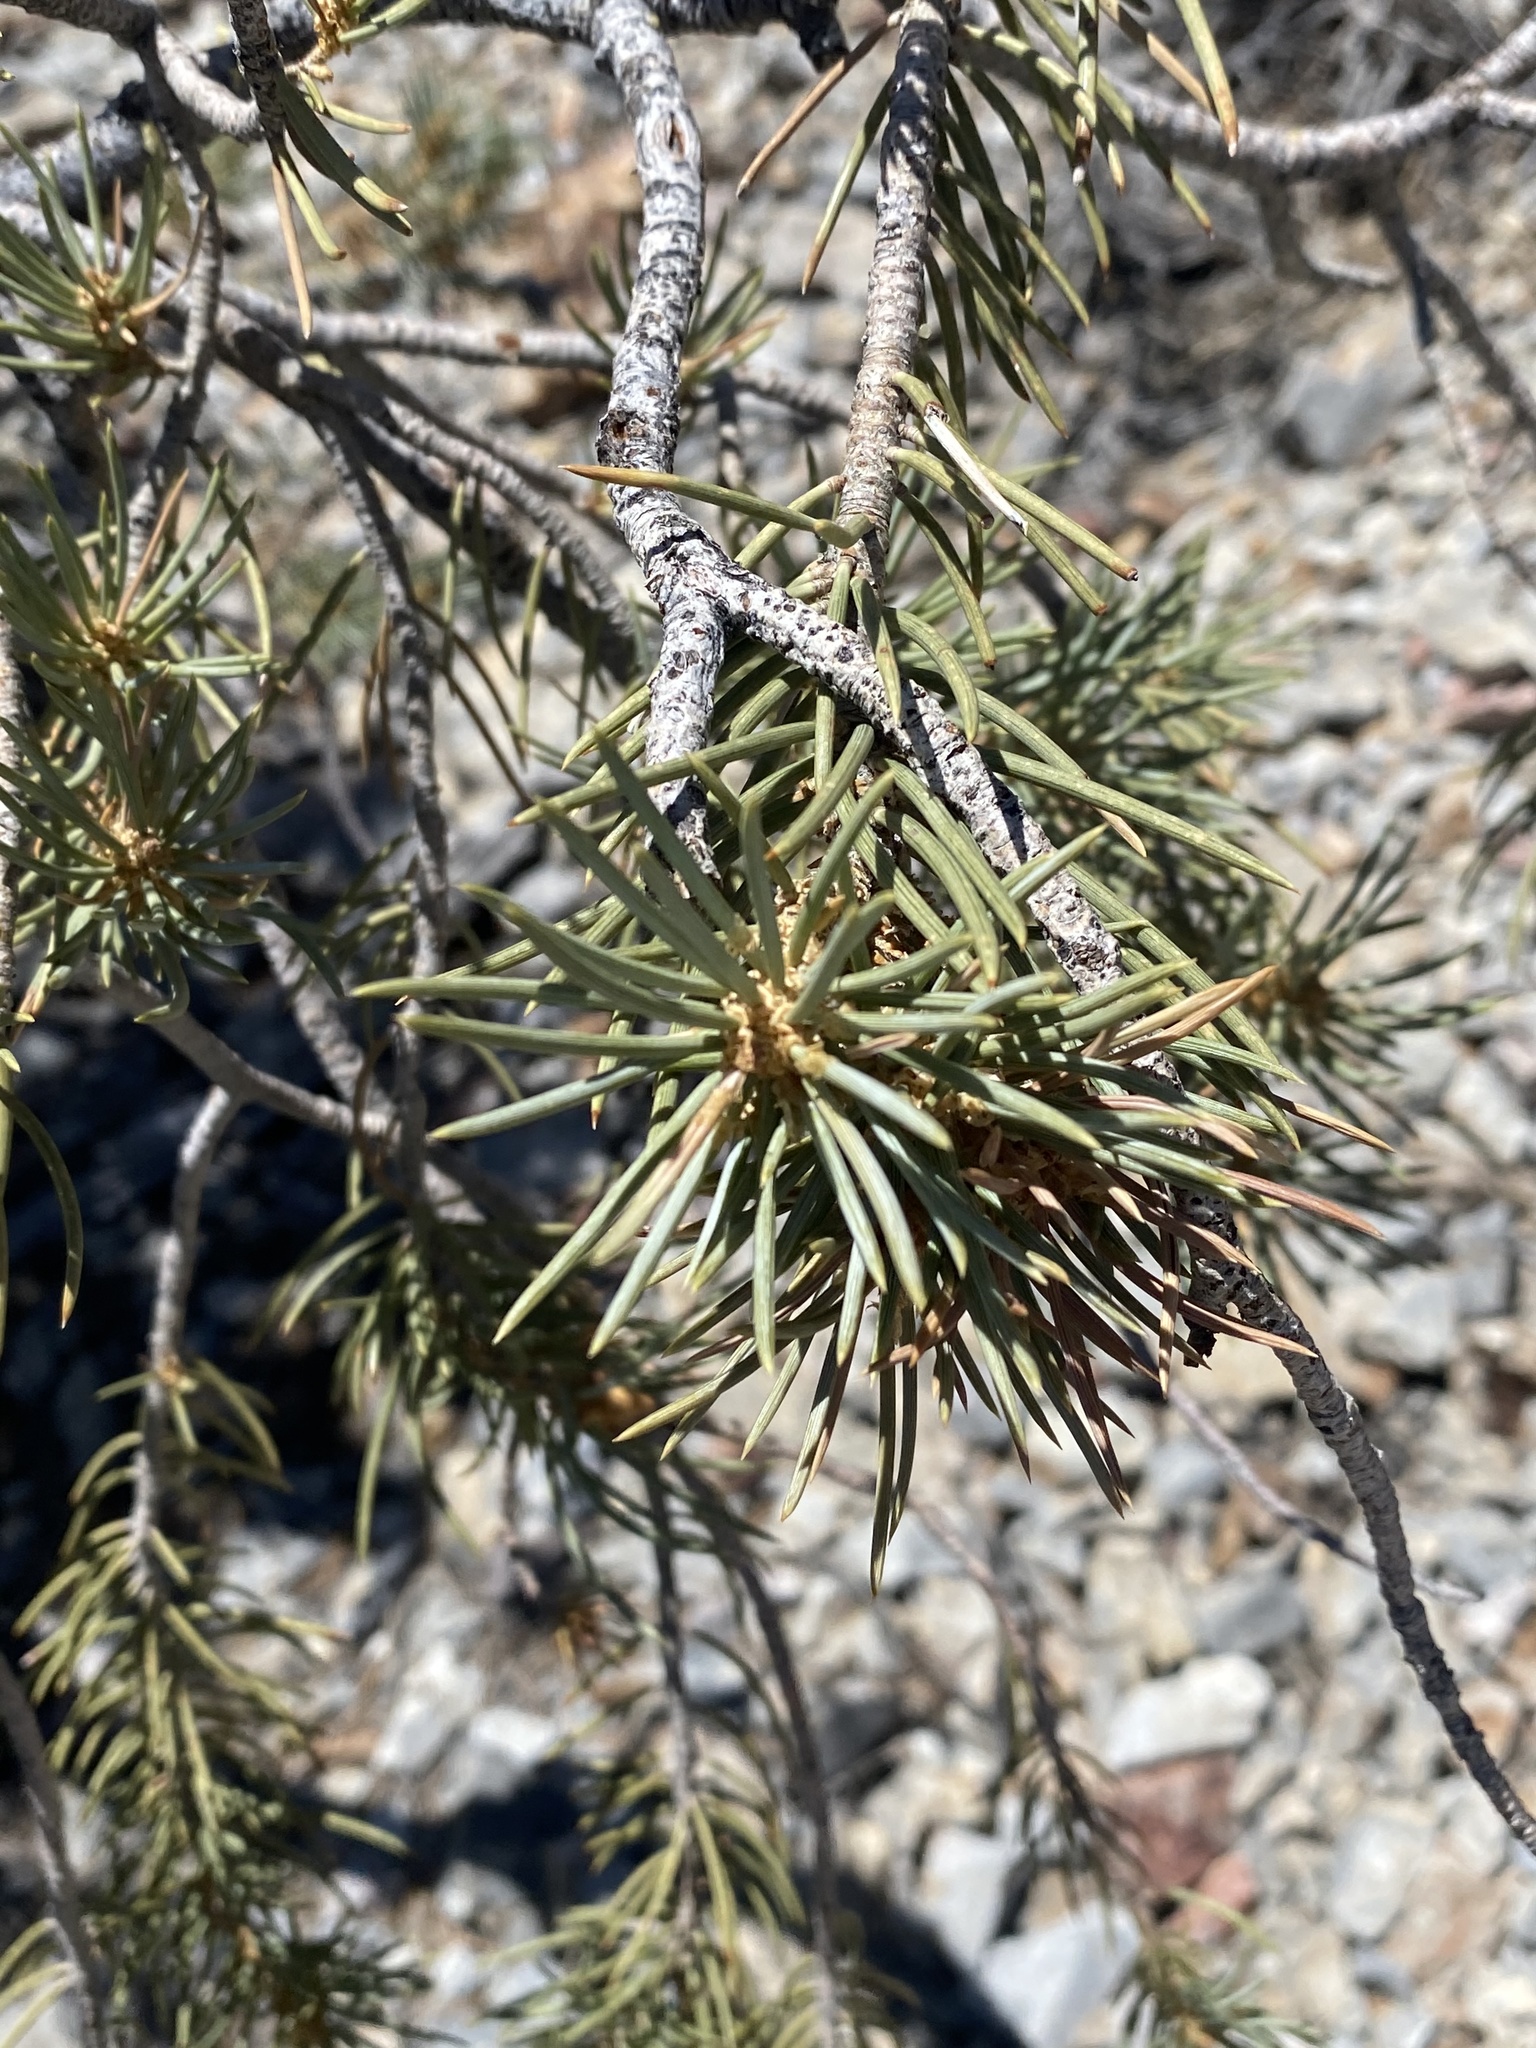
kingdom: Plantae
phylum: Tracheophyta
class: Pinopsida
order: Pinales
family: Pinaceae
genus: Pinus
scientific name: Pinus monophylla
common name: One-leaved nut pine
